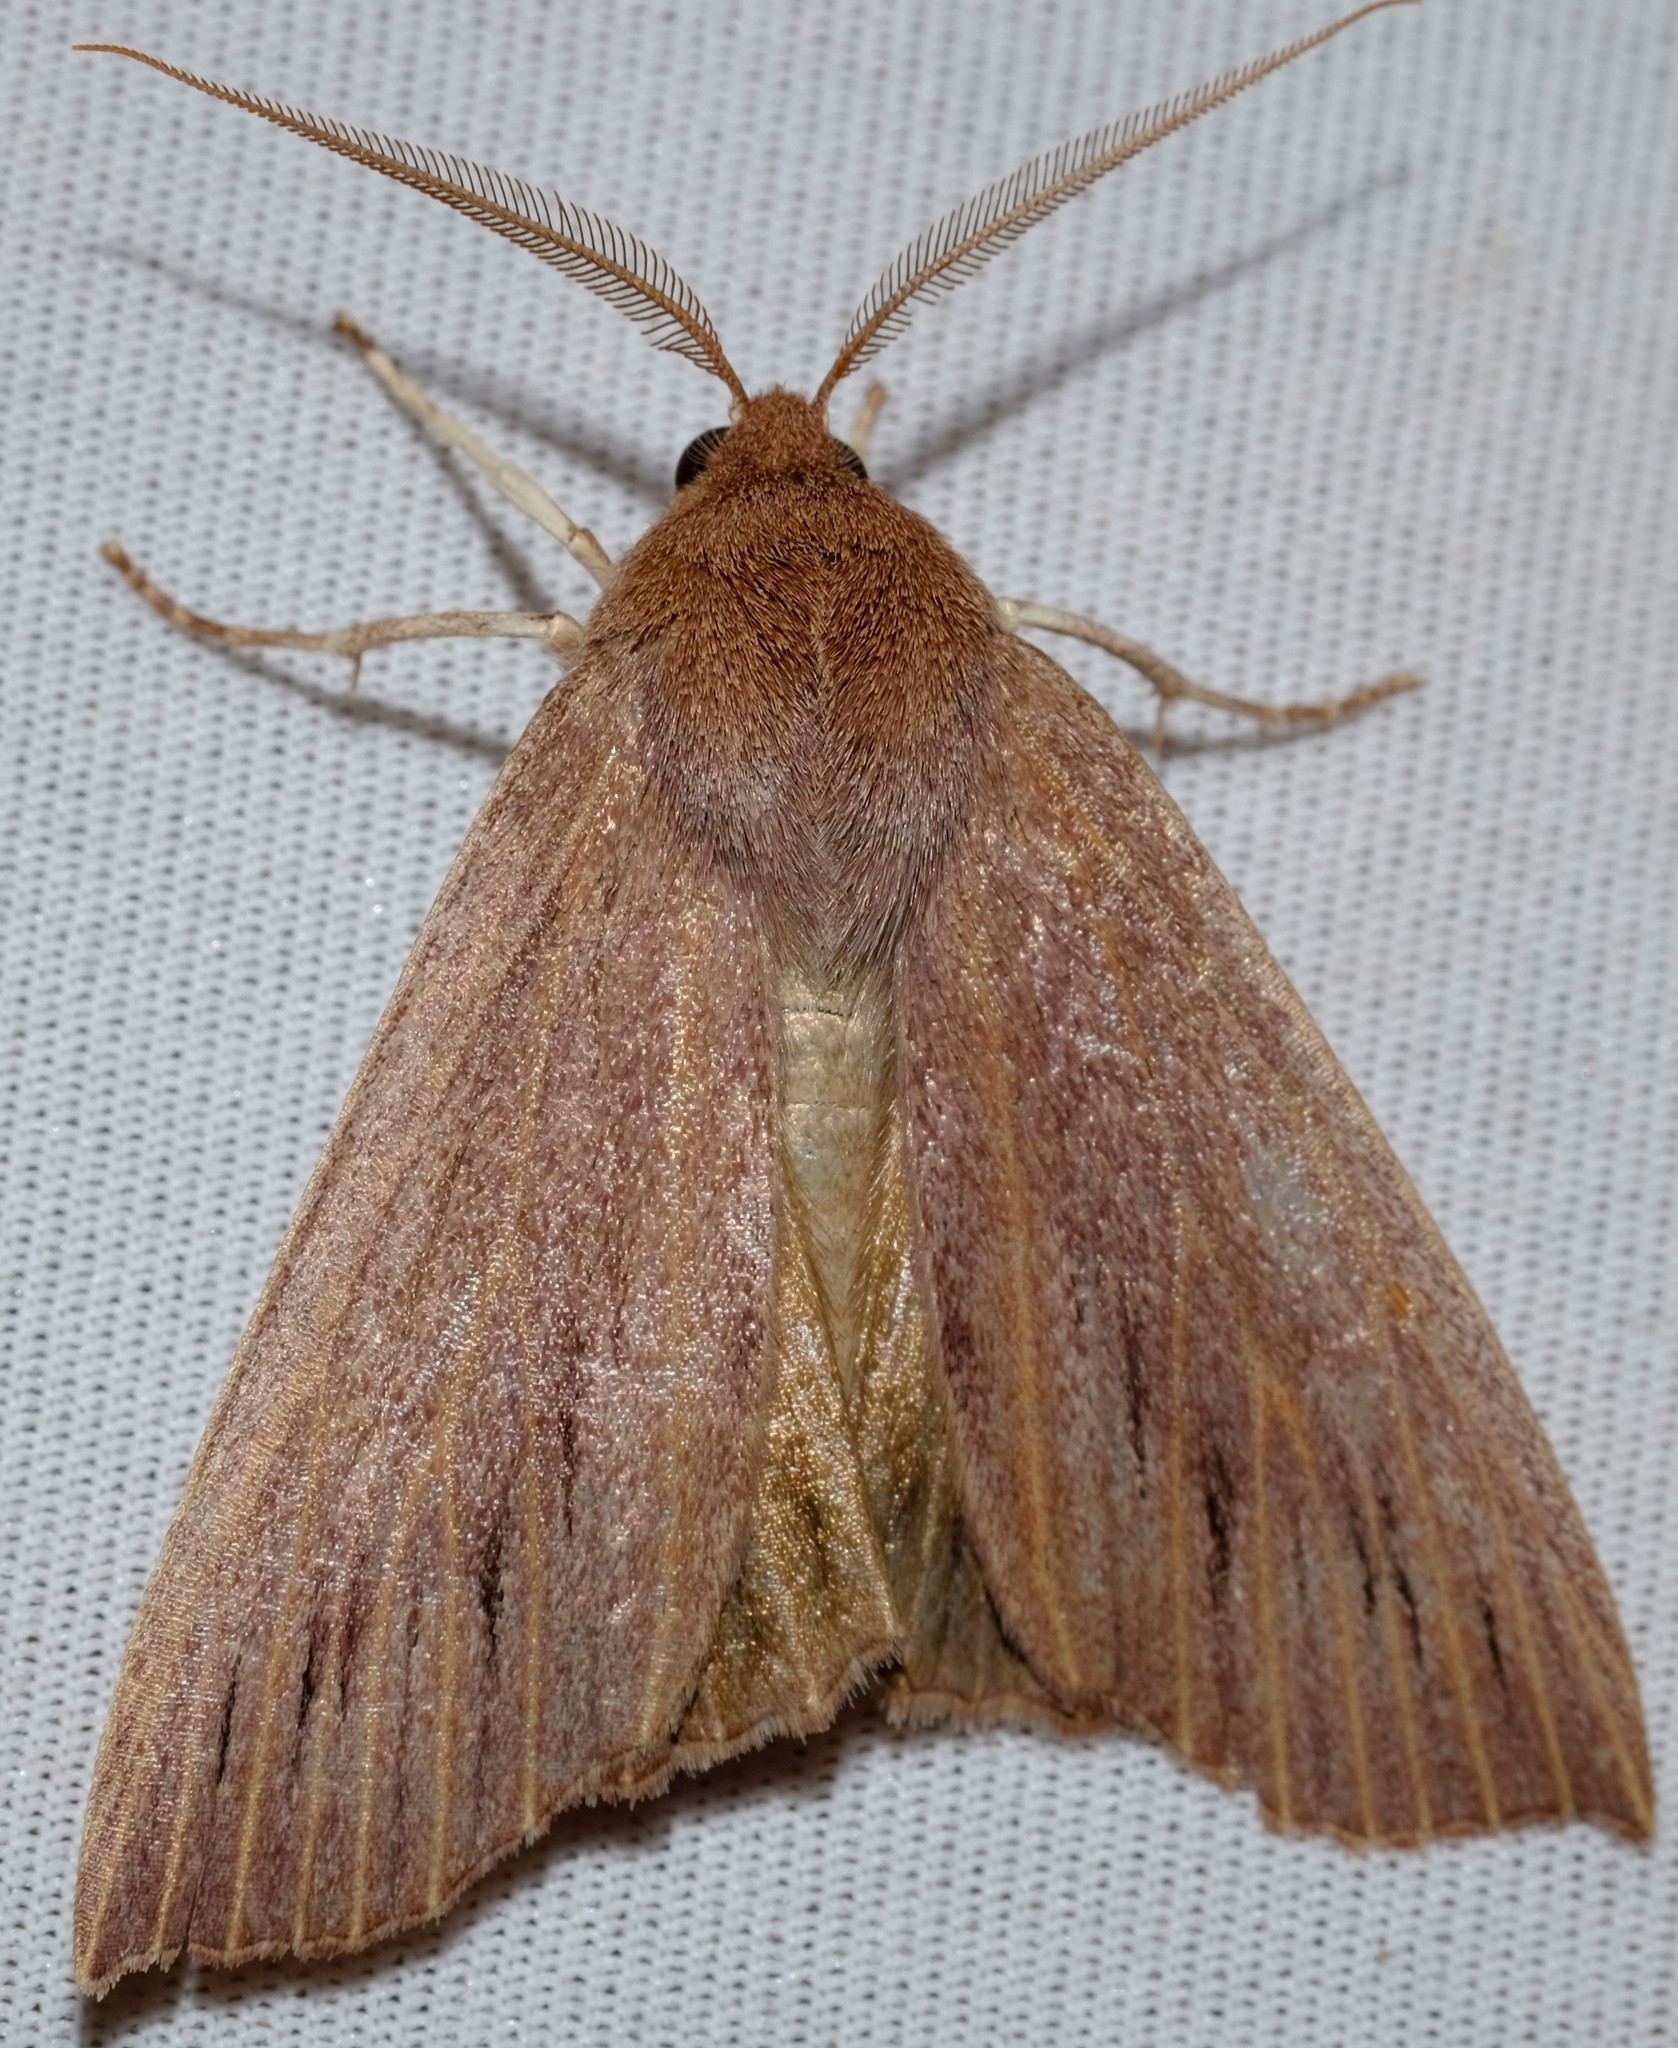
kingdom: Animalia
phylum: Arthropoda
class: Insecta
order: Lepidoptera
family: Geometridae
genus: Palleopa
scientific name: Palleopa innotata
